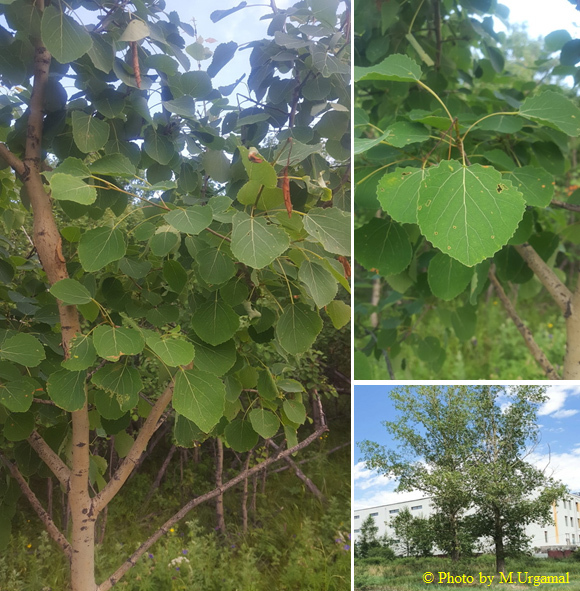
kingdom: Plantae
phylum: Tracheophyta
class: Magnoliopsida
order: Malpighiales
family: Salicaceae
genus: Populus
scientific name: Populus tremula
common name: European aspen
